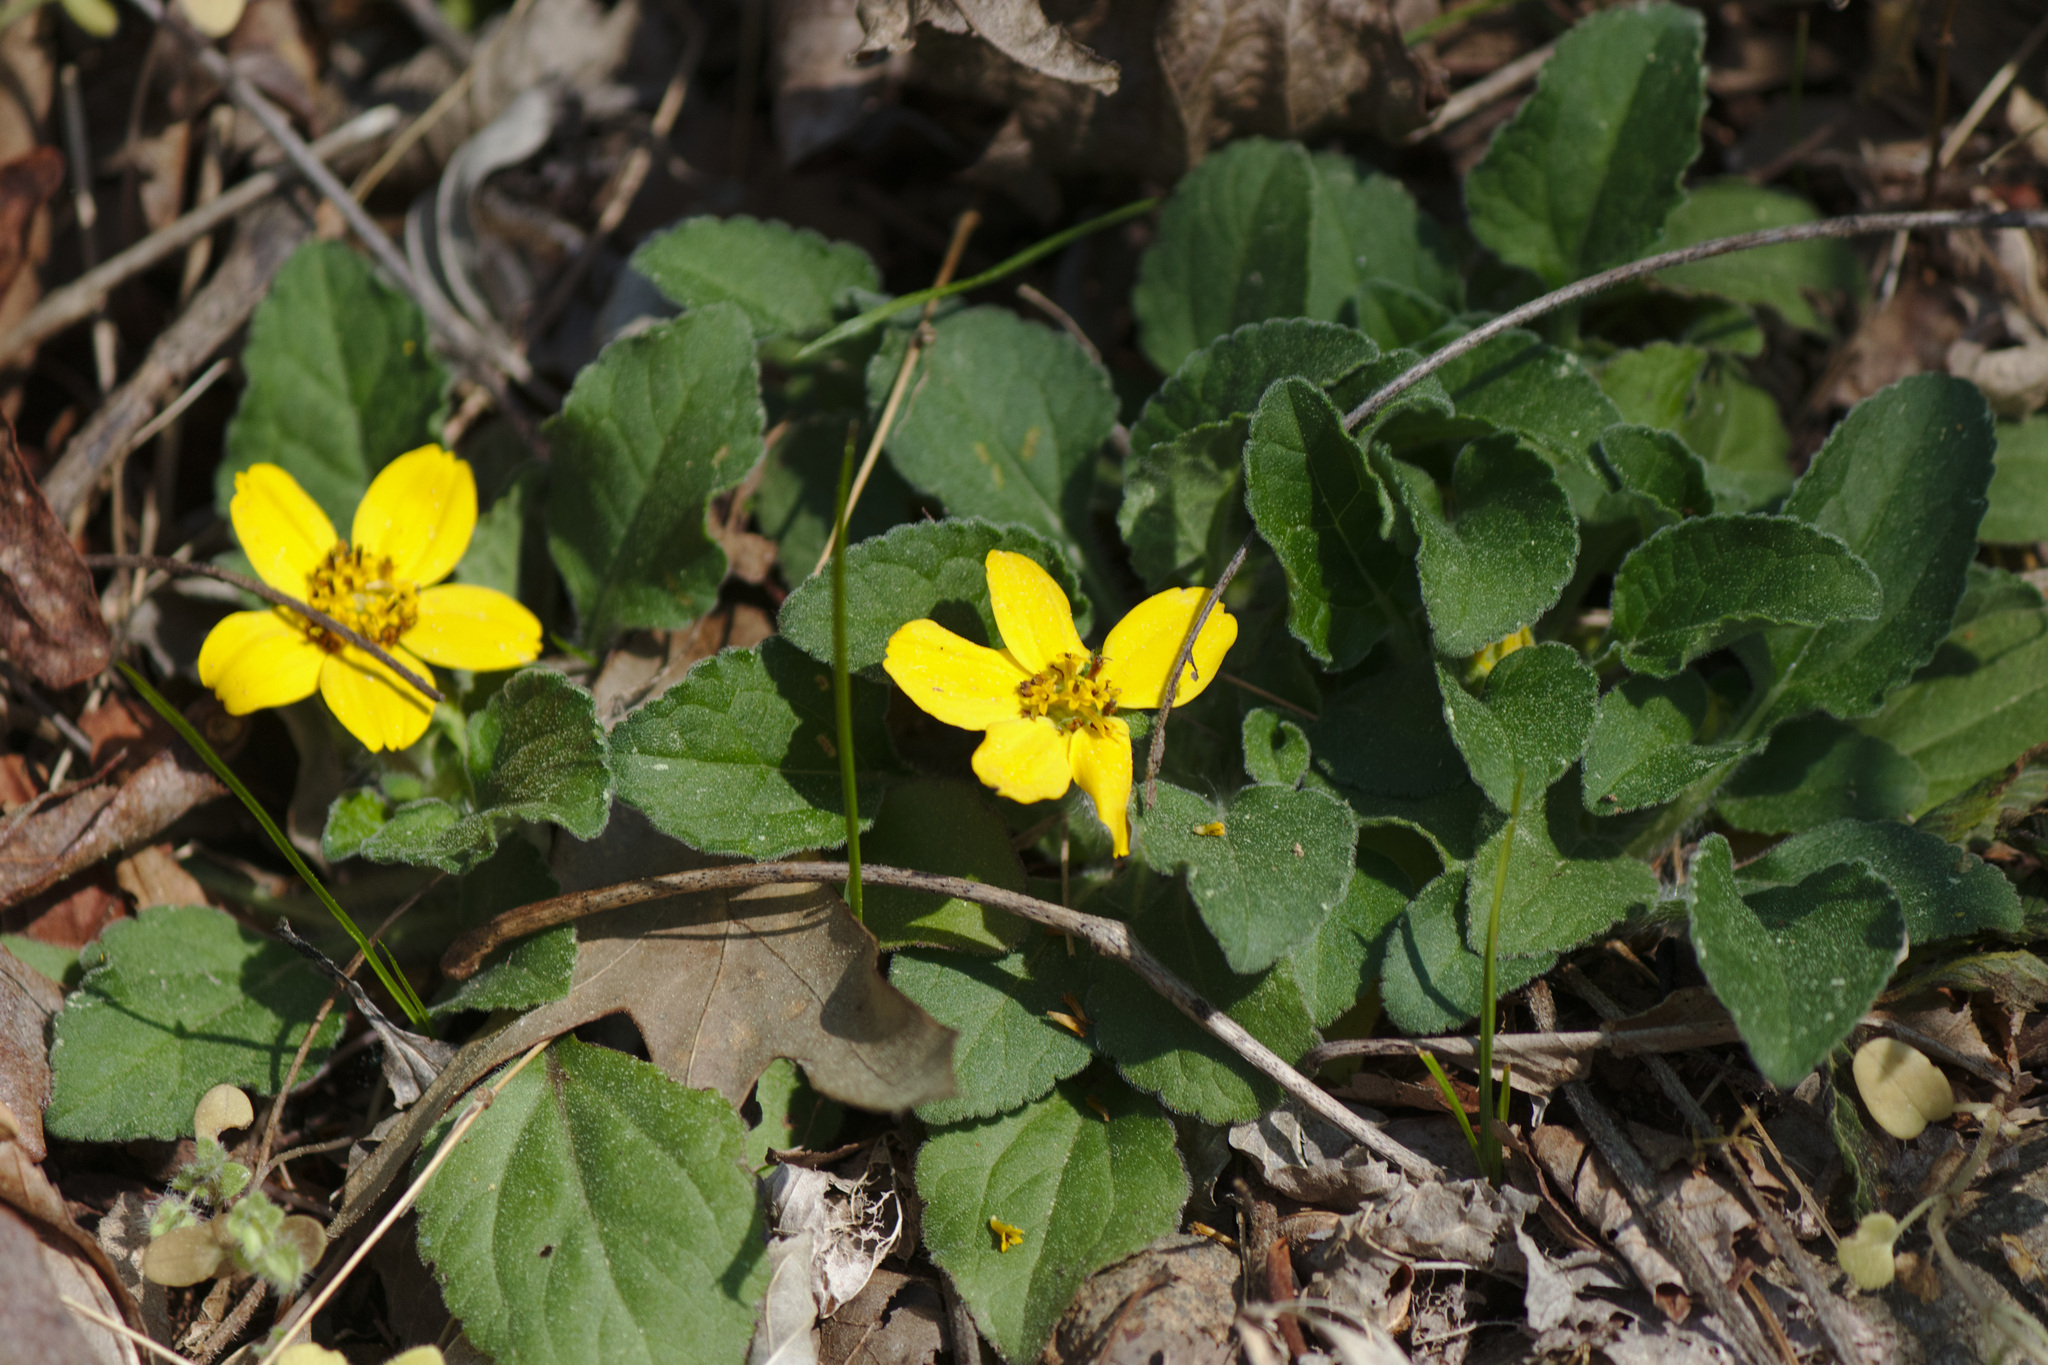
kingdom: Plantae
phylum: Tracheophyta
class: Magnoliopsida
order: Asterales
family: Asteraceae
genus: Chrysogonum
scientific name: Chrysogonum virginianum
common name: Golden-knee
